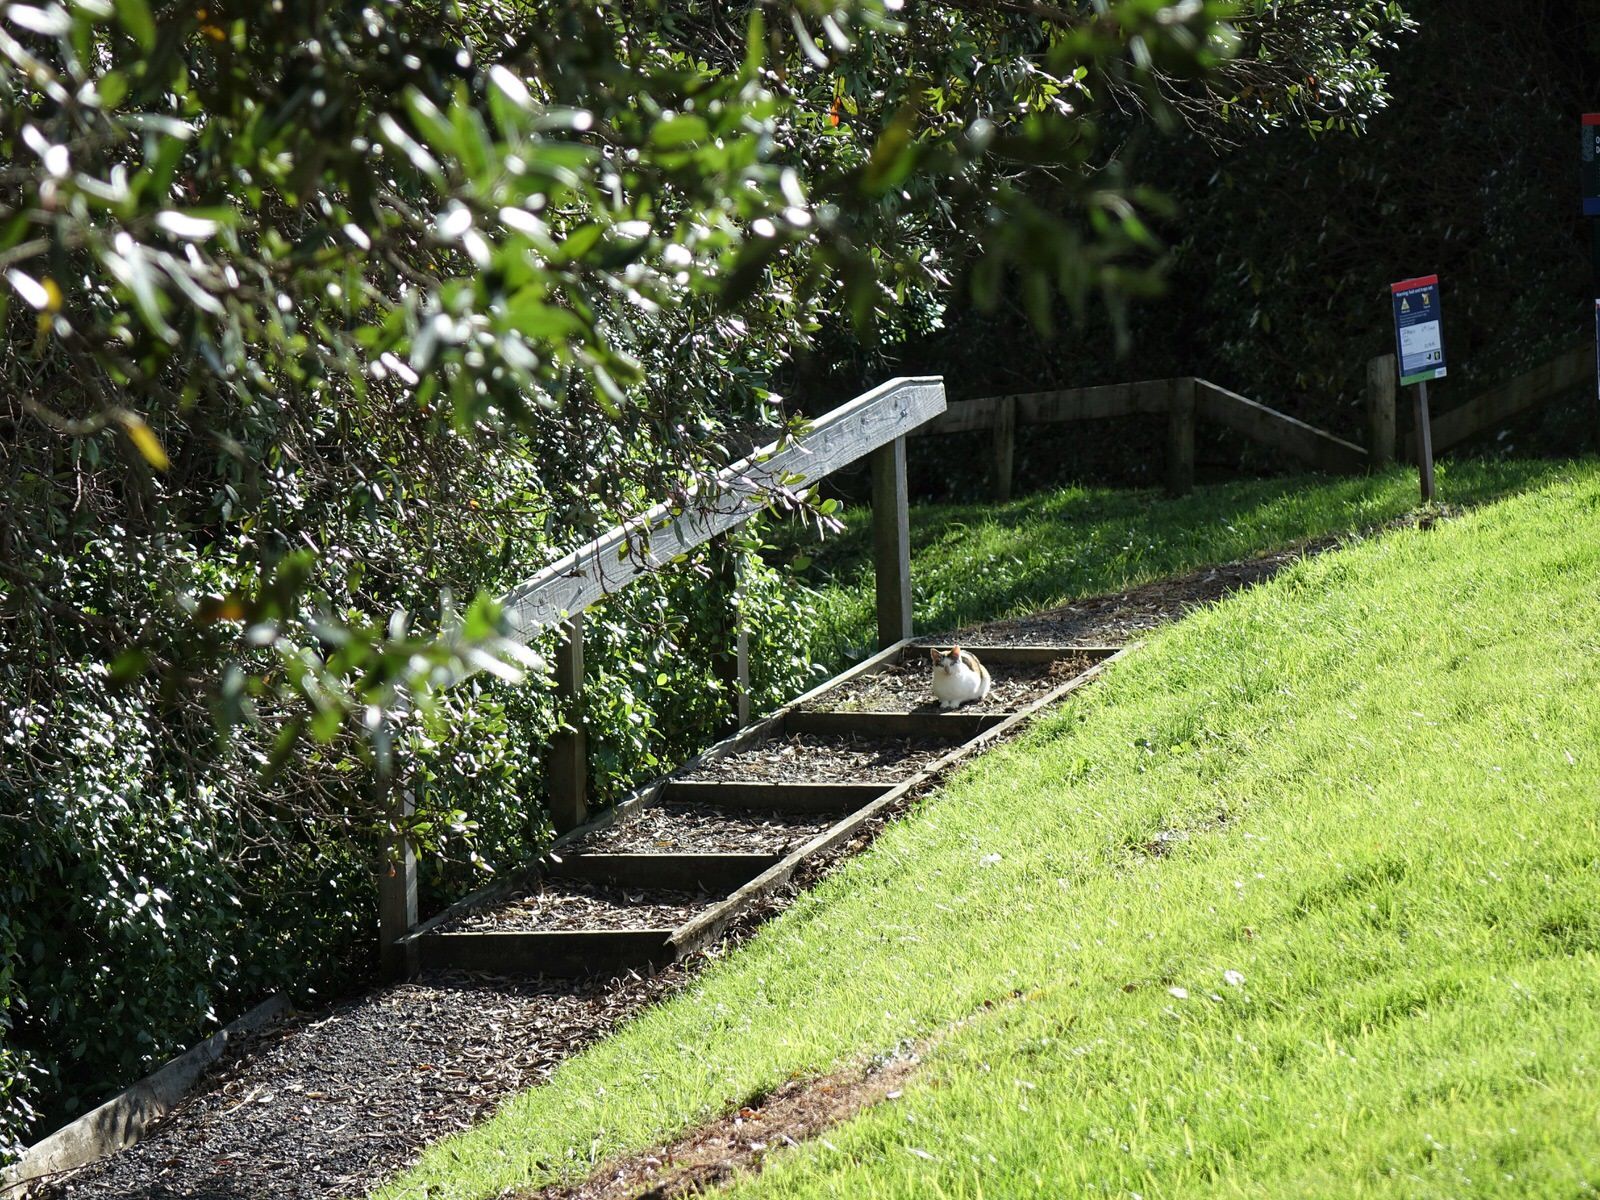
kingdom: Animalia
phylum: Chordata
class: Mammalia
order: Carnivora
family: Felidae
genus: Felis
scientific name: Felis catus
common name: Domestic cat
